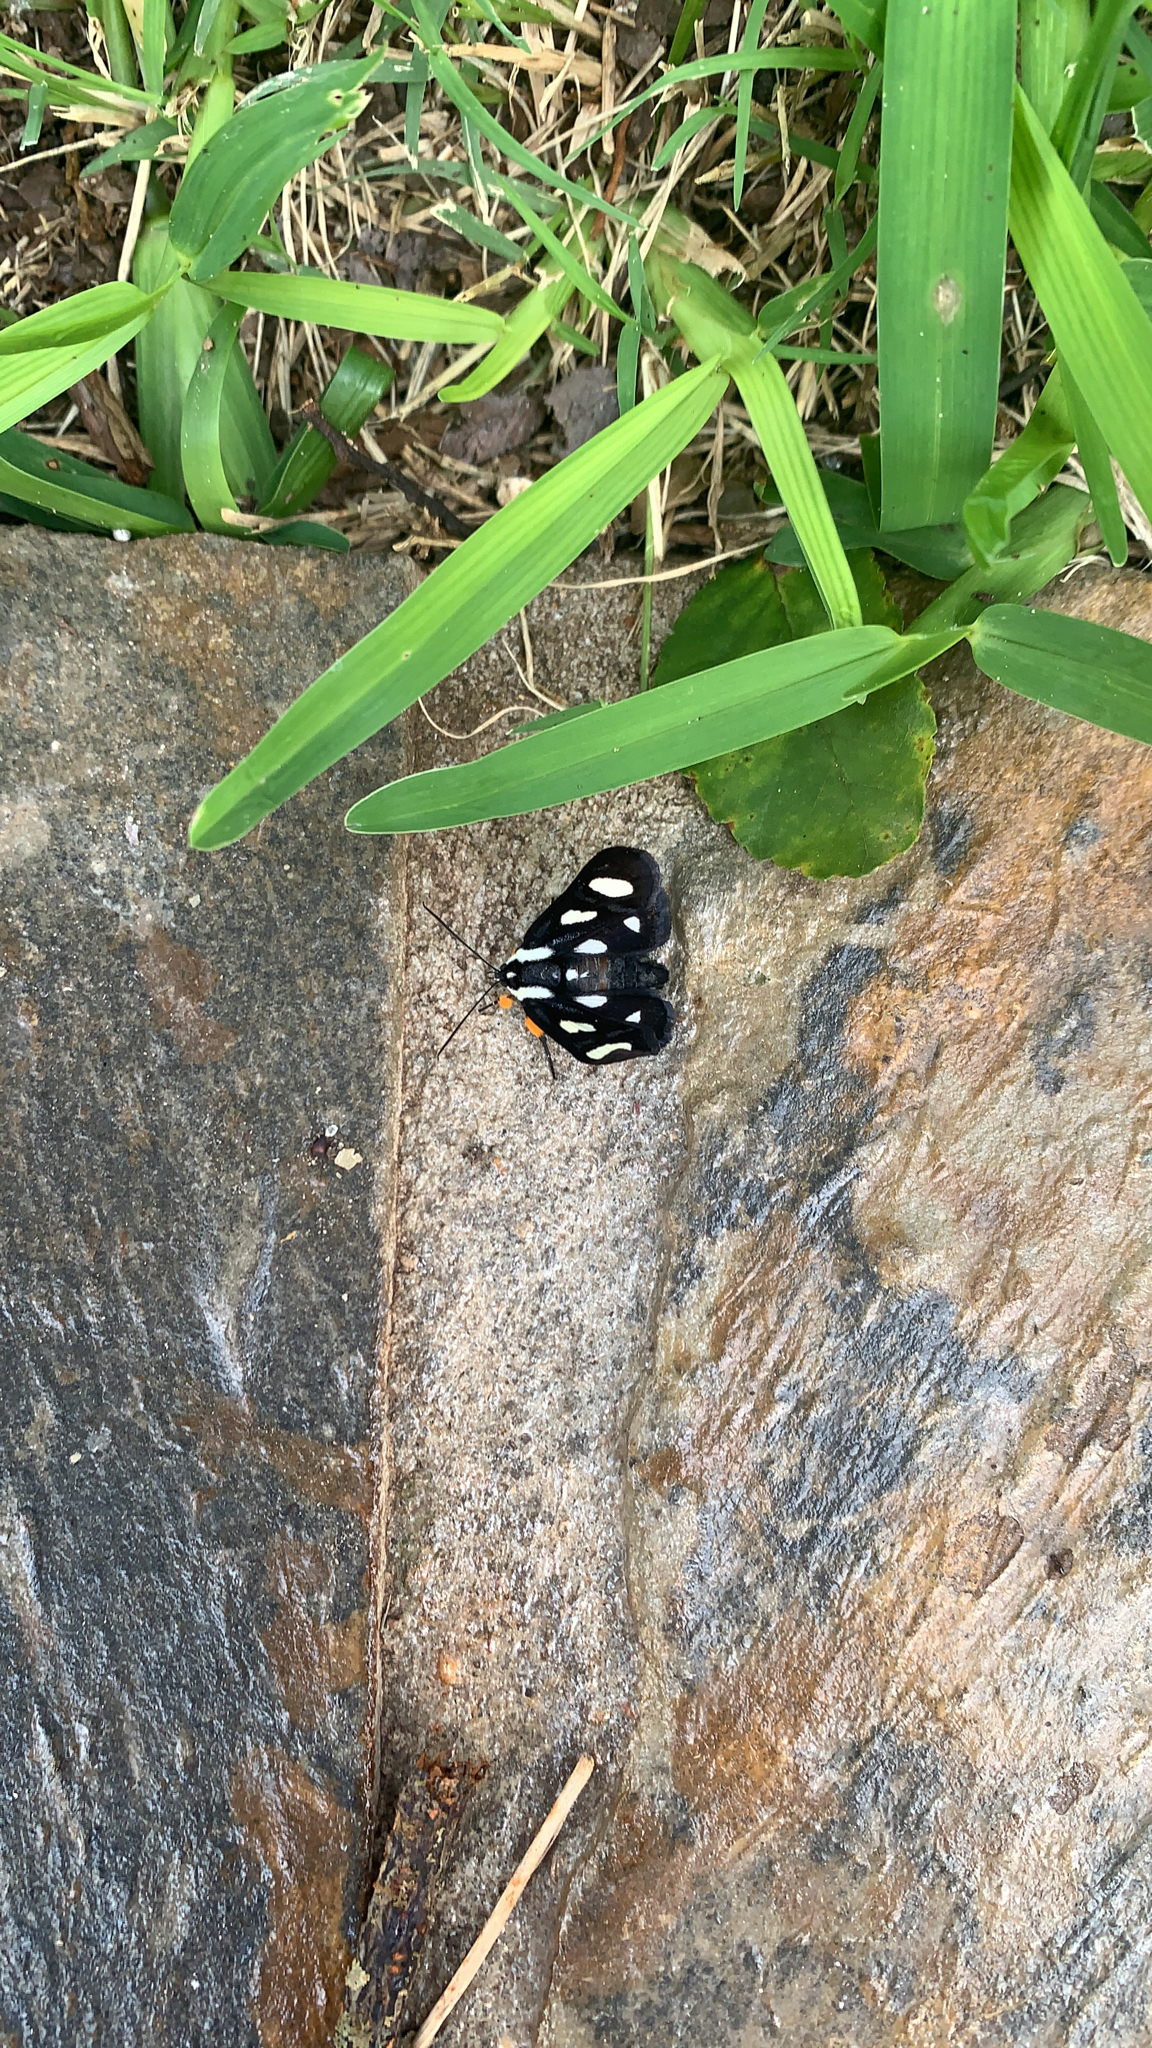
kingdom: Animalia
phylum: Arthropoda
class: Insecta
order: Lepidoptera
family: Noctuidae
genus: Alypia
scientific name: Alypia octomaculata
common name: Eight-spotted forester
